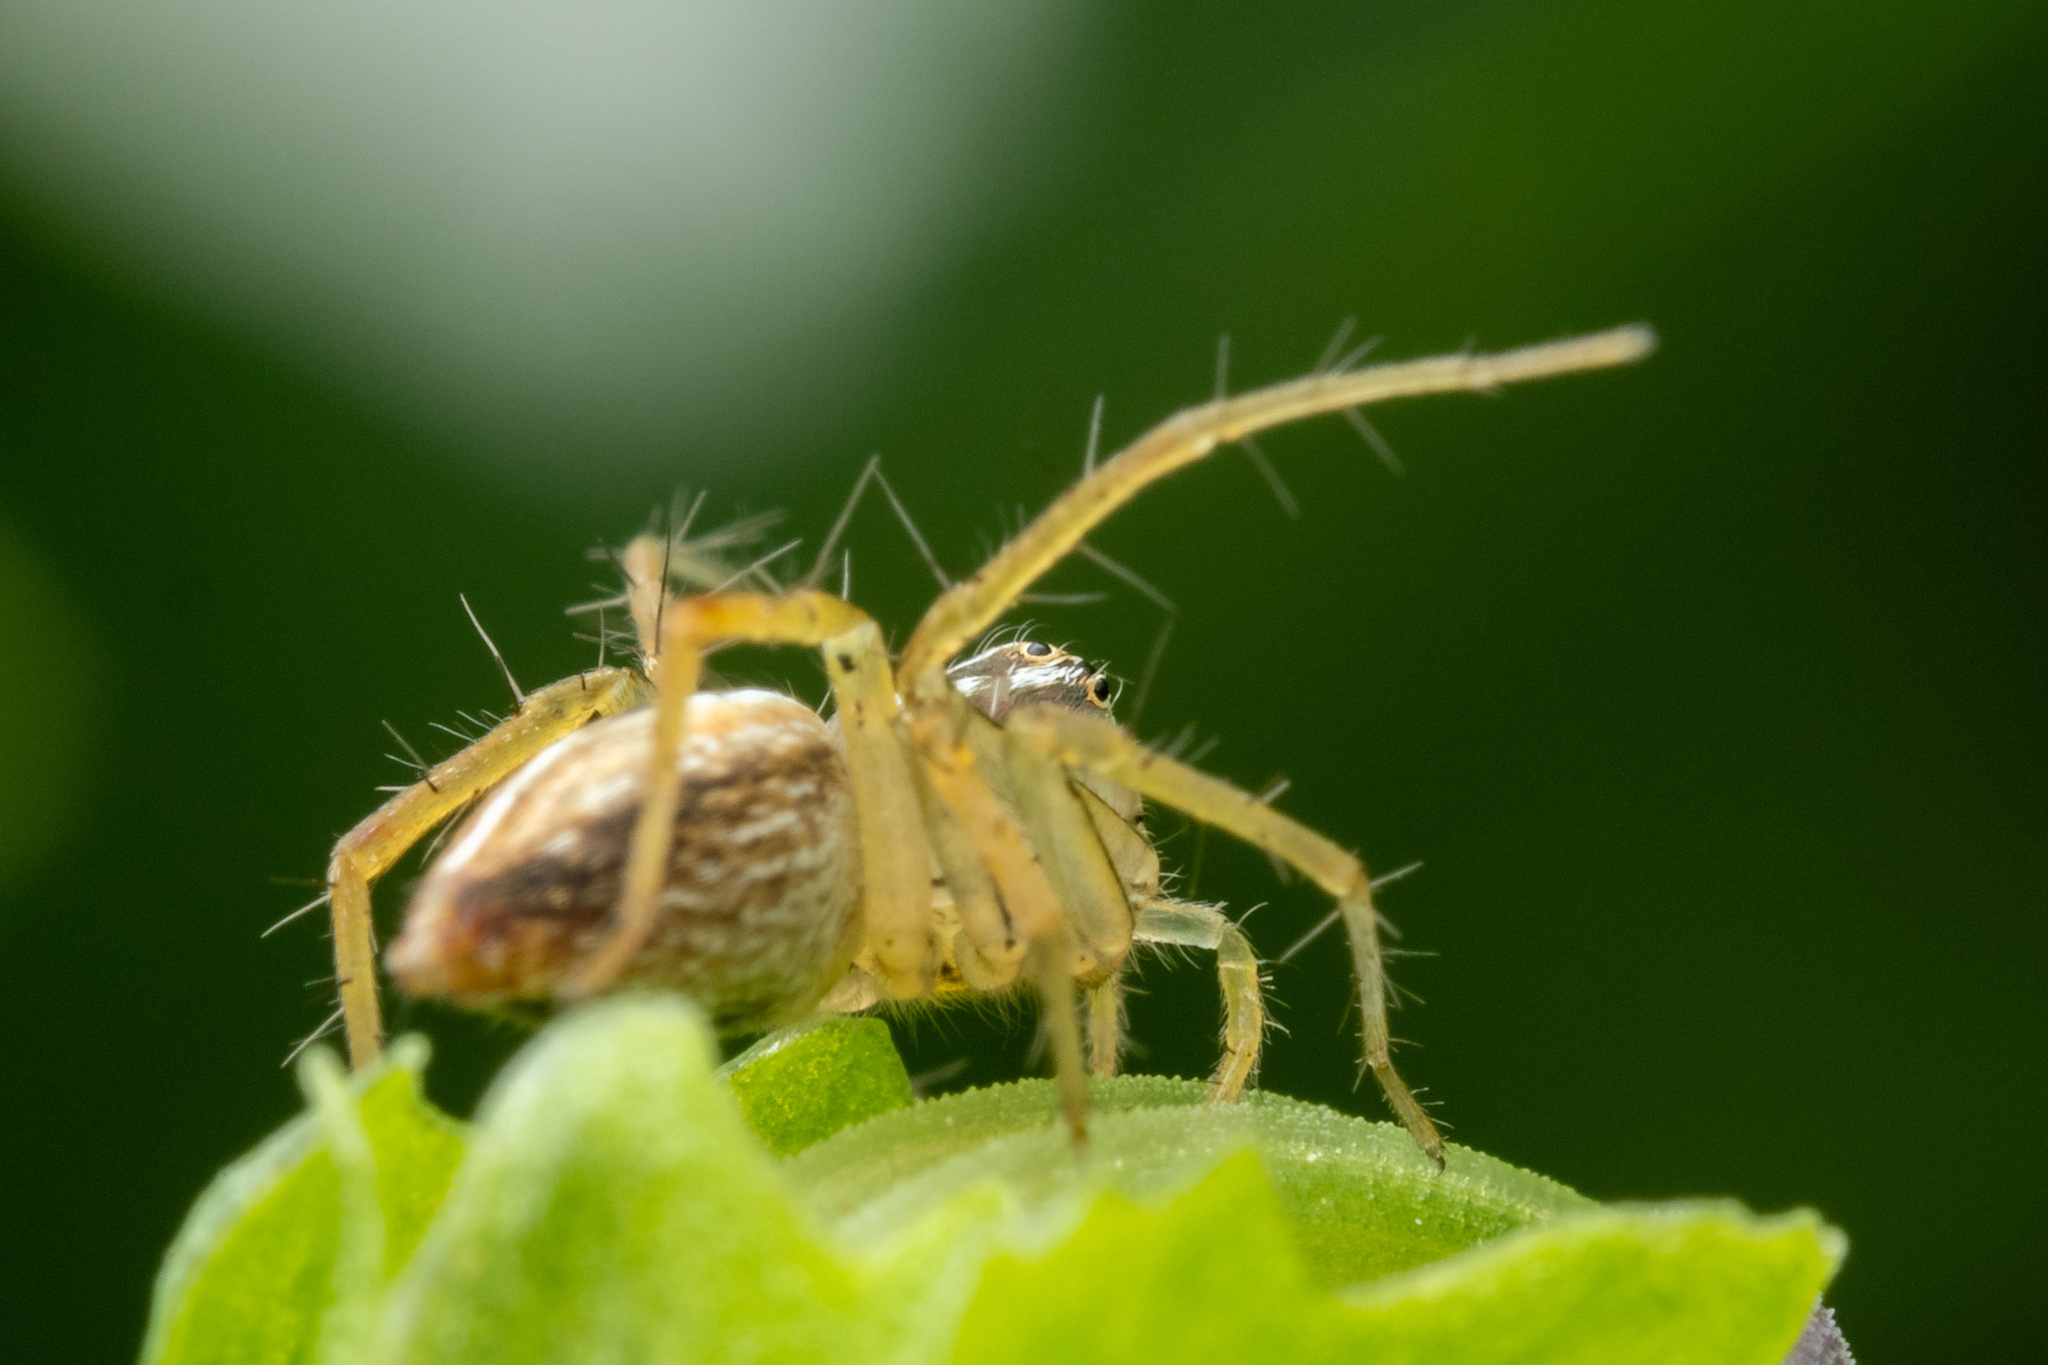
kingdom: Animalia
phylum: Arthropoda
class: Arachnida
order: Araneae
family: Oxyopidae
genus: Oxyopes
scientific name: Oxyopes salticus
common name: Lynx spiders
